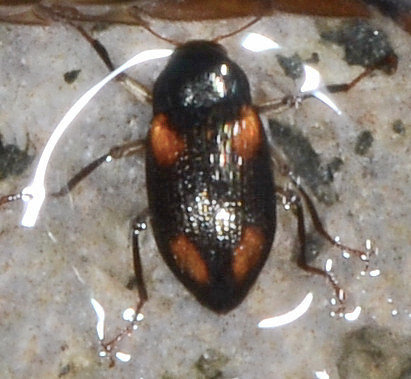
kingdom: Animalia
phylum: Arthropoda
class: Insecta
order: Coleoptera
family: Elmidae
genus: Optioservus
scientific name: Optioservus quadrimaculatus
